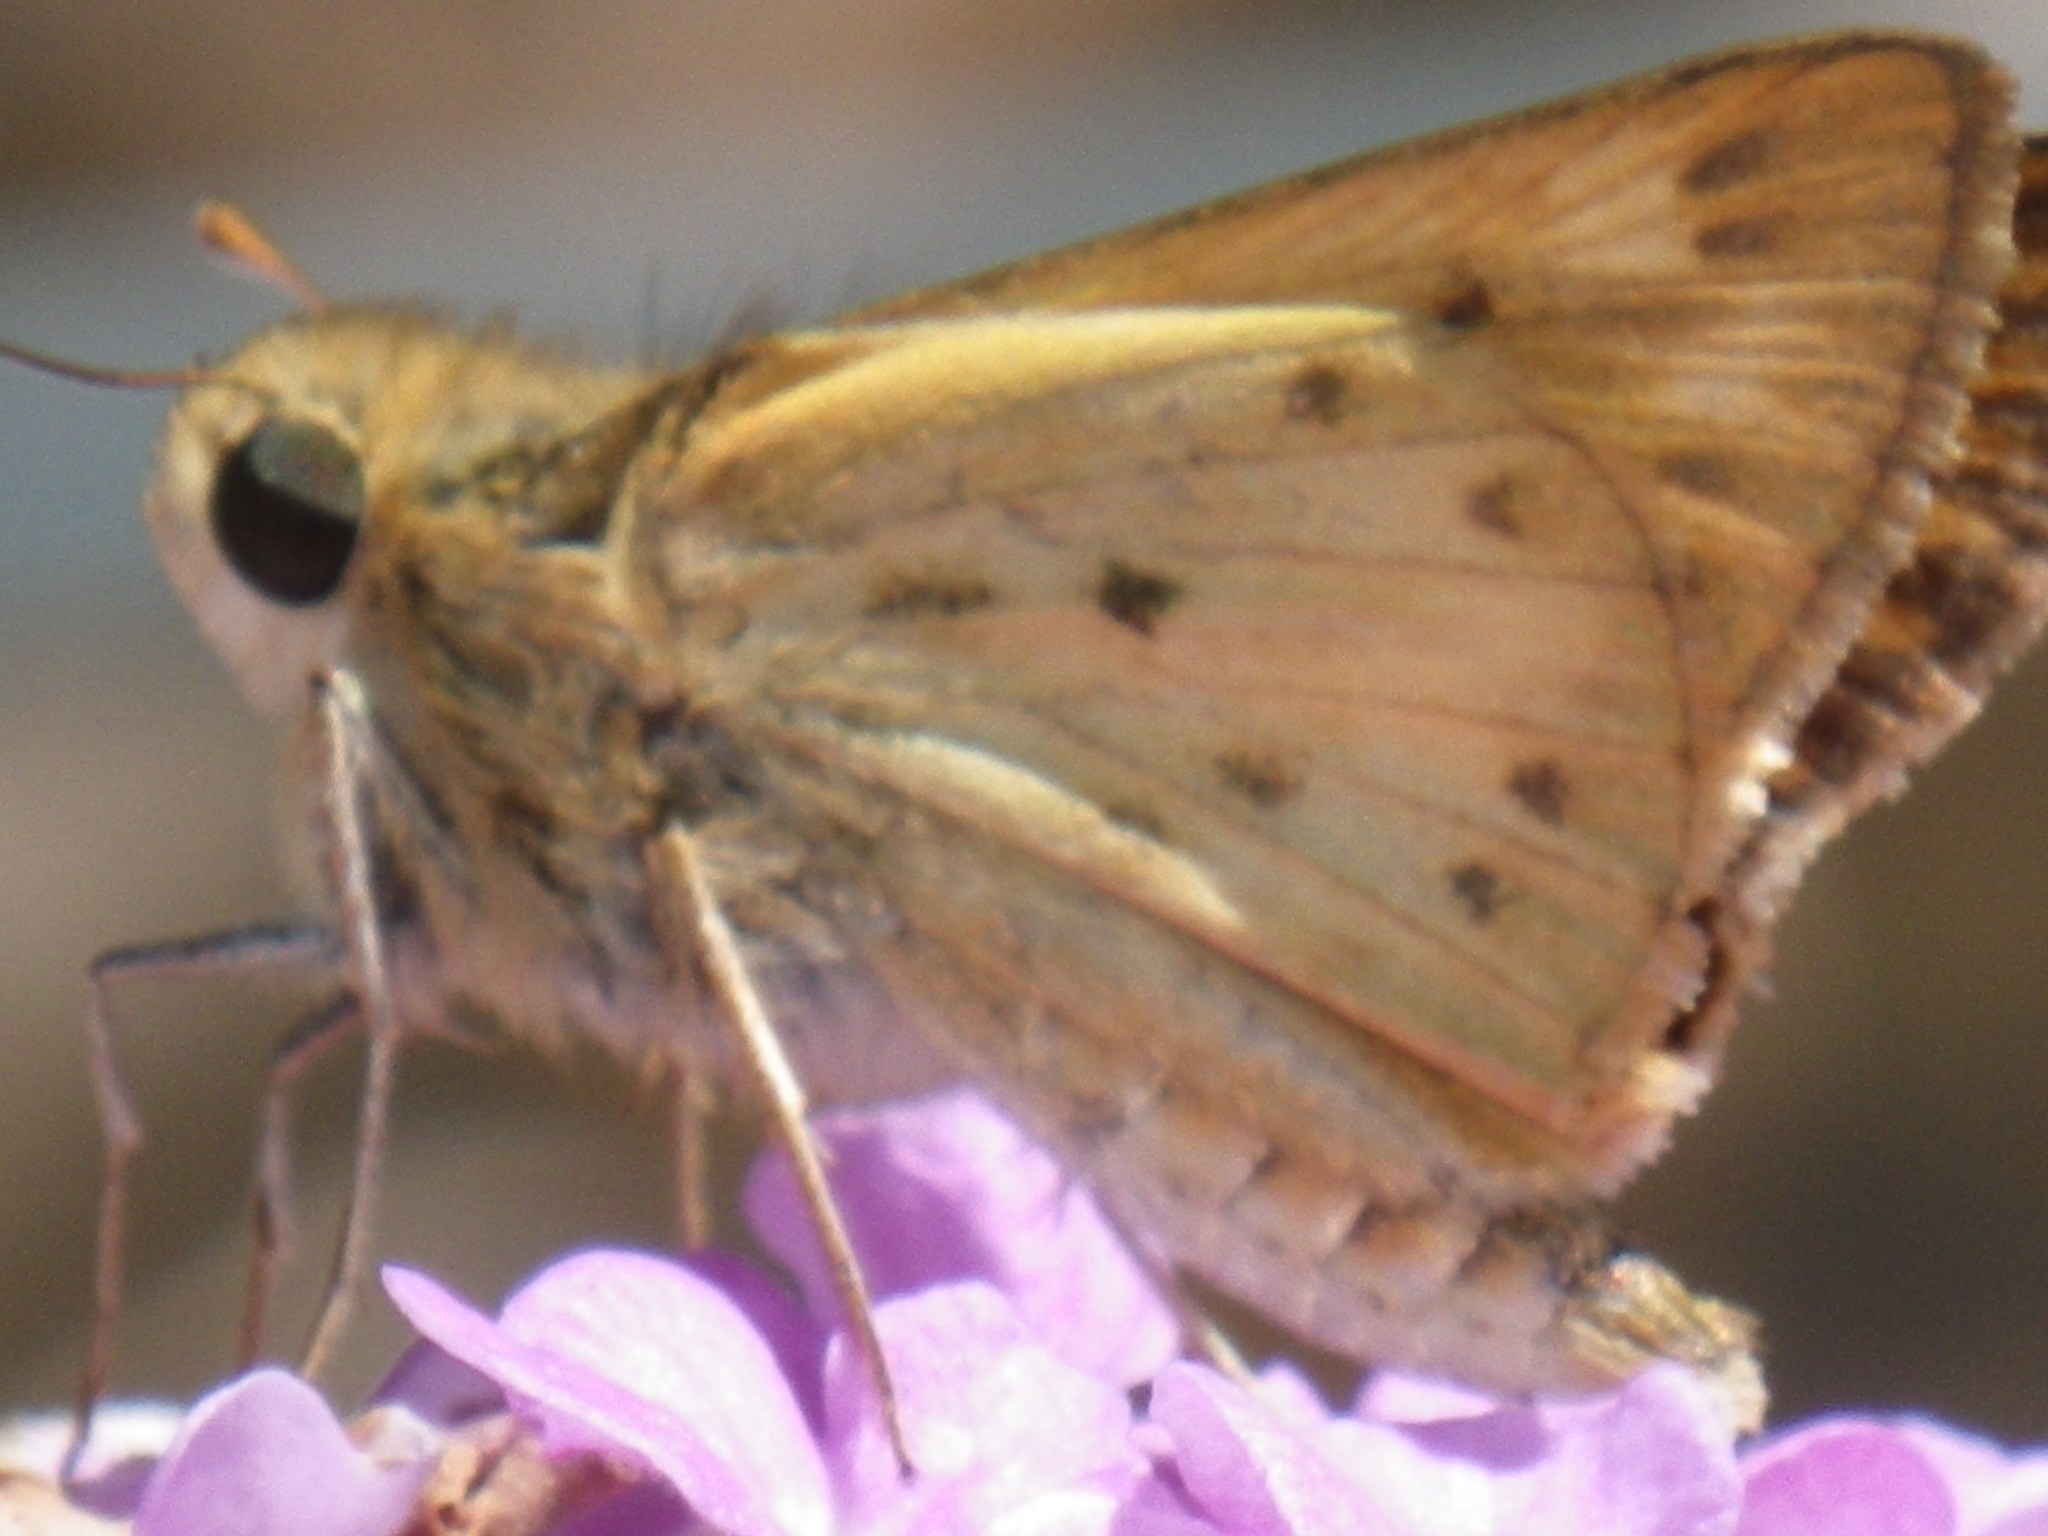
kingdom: Animalia
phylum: Arthropoda
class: Insecta
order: Lepidoptera
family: Hesperiidae
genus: Hylephila
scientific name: Hylephila phyleus
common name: Fiery skipper
